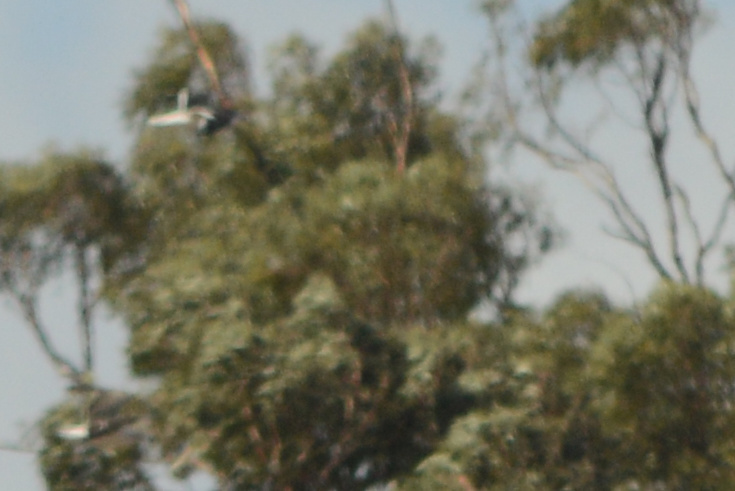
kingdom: Animalia
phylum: Chordata
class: Aves
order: Charadriiformes
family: Laridae
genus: Larus
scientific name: Larus dominicanus
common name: Kelp gull
